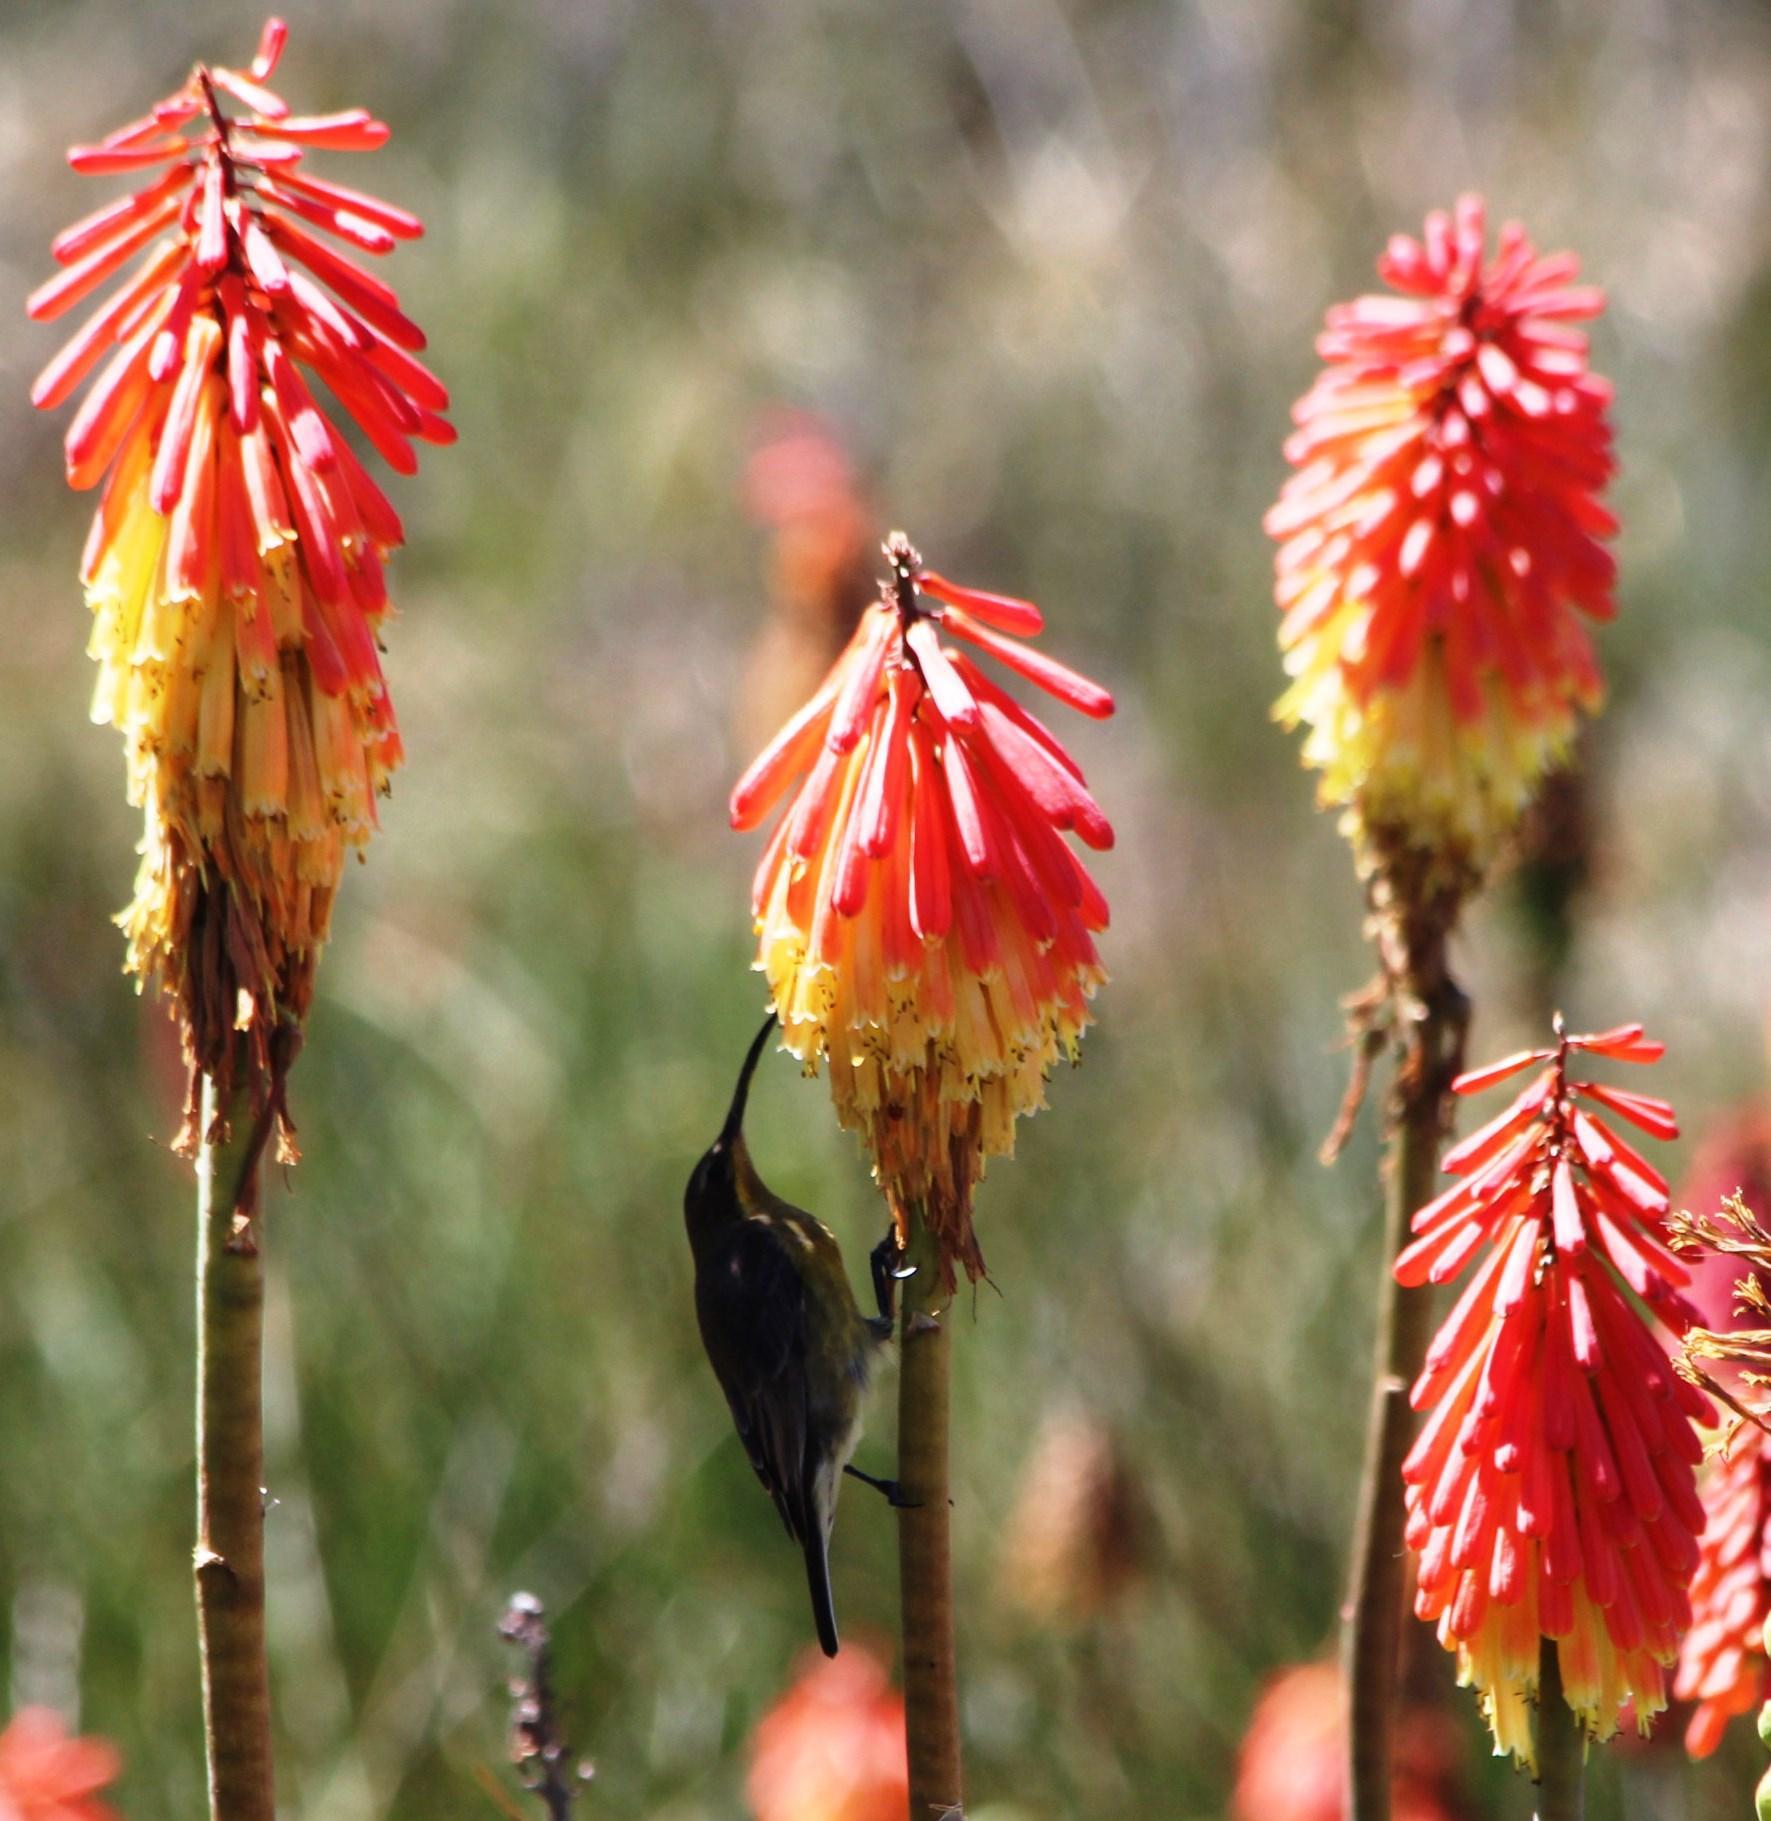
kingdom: Animalia
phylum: Chordata
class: Aves
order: Passeriformes
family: Nectariniidae
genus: Nectarinia
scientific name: Nectarinia famosa
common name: Malachite sunbird
